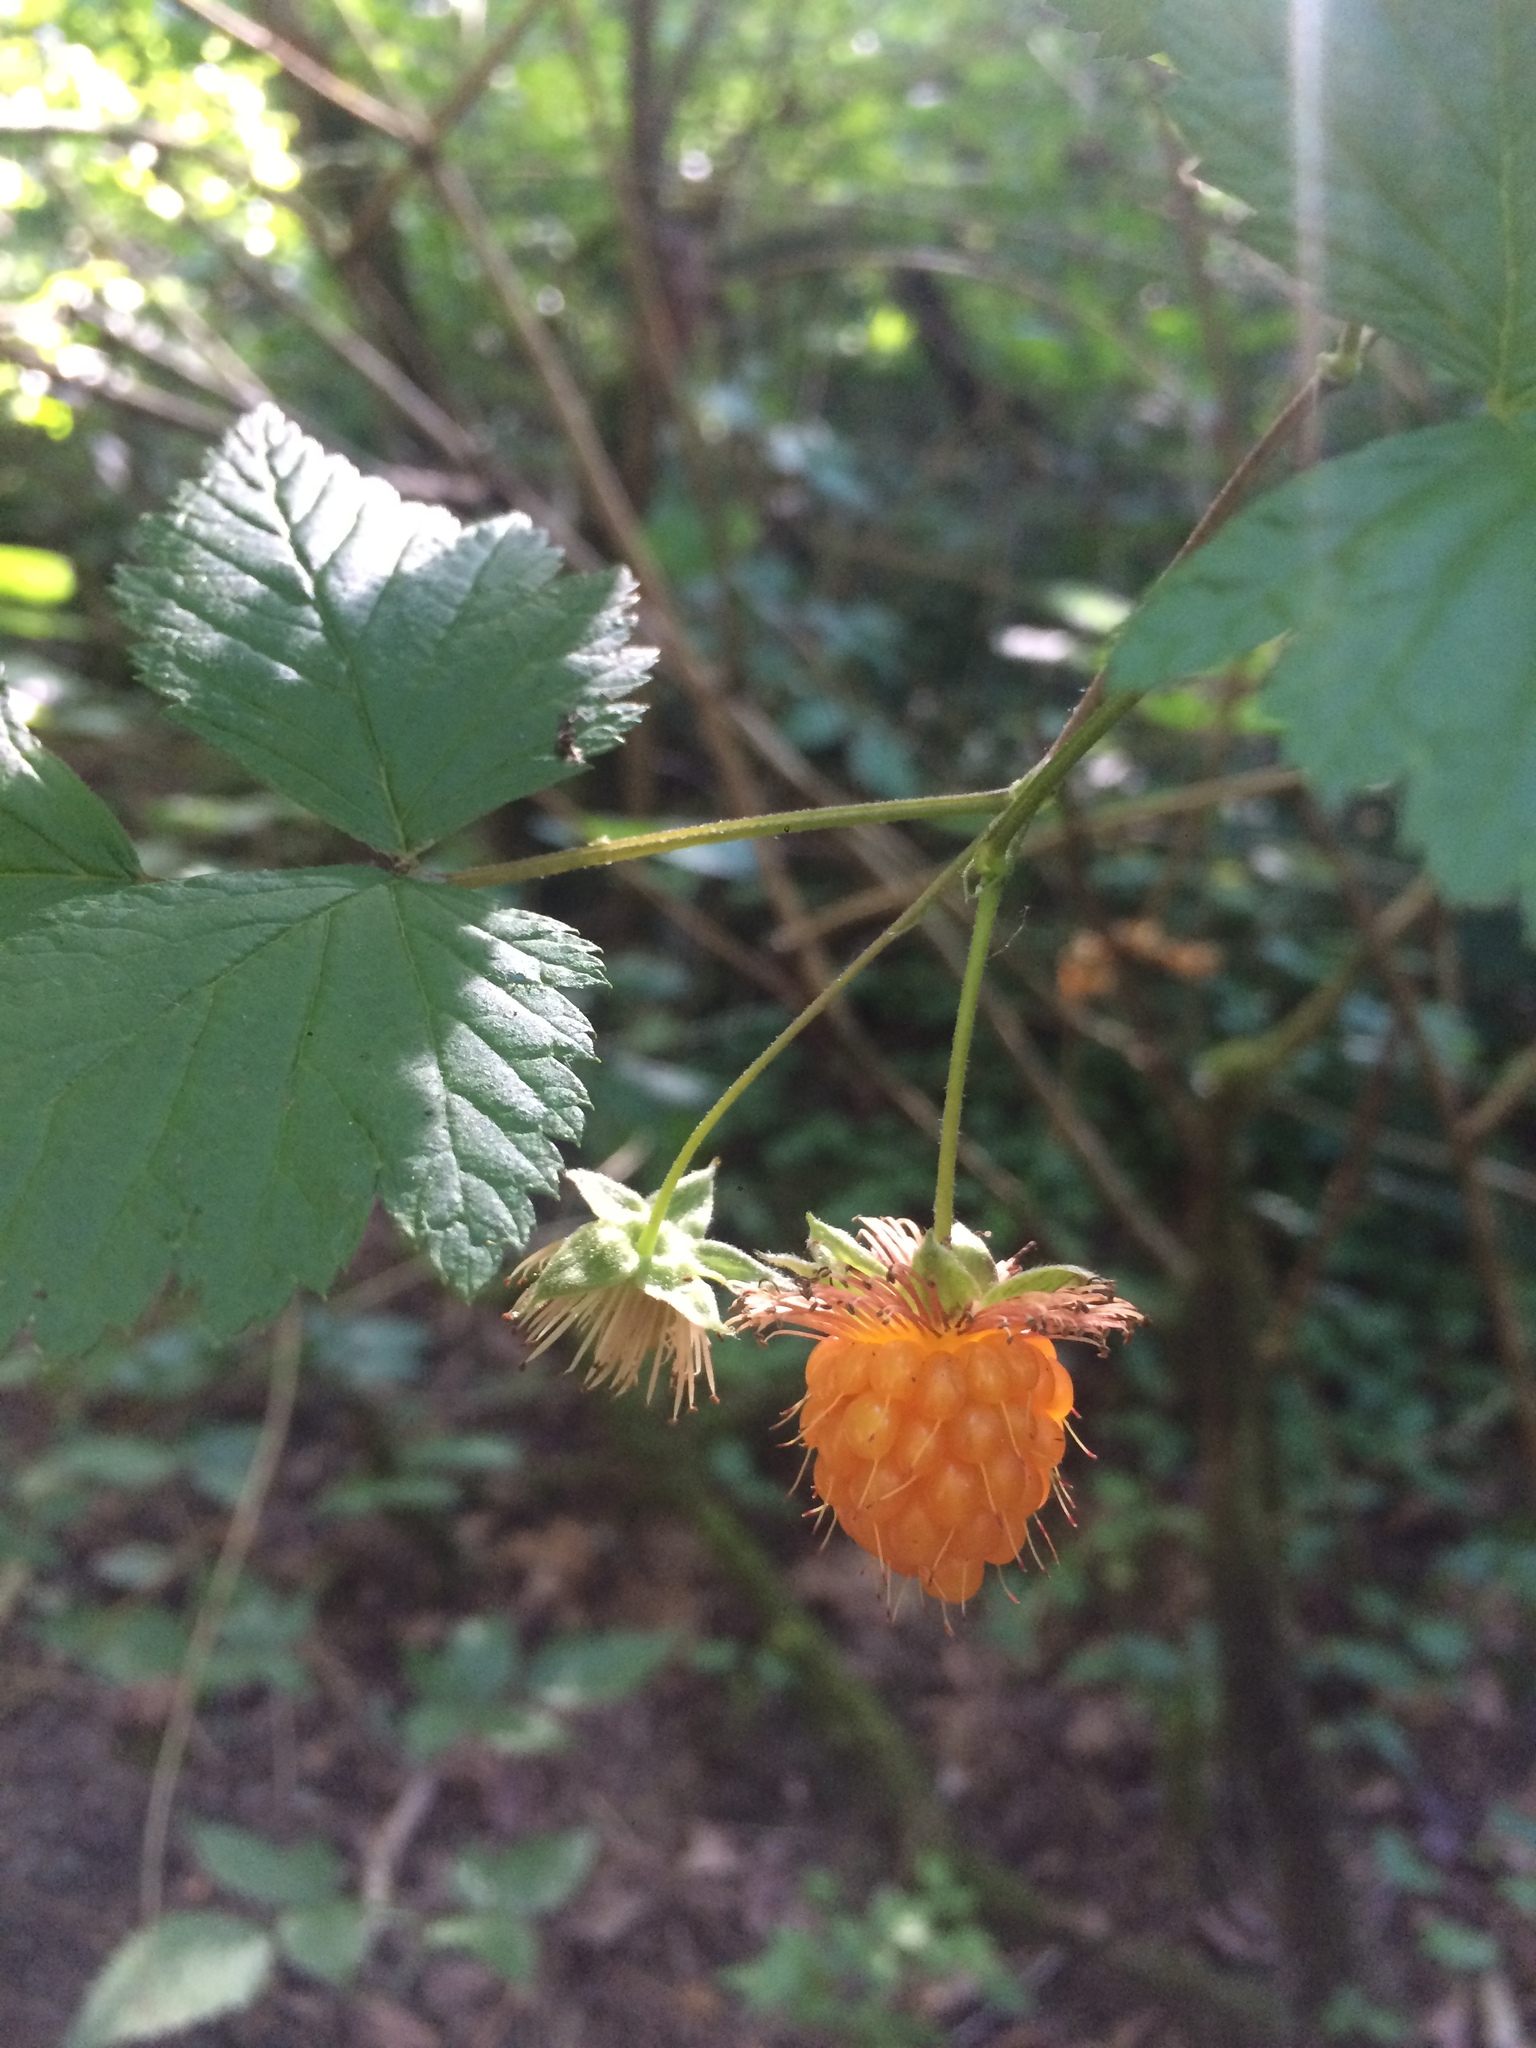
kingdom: Plantae
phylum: Tracheophyta
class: Magnoliopsida
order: Rosales
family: Rosaceae
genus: Rubus
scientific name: Rubus spectabilis
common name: Salmonberry
